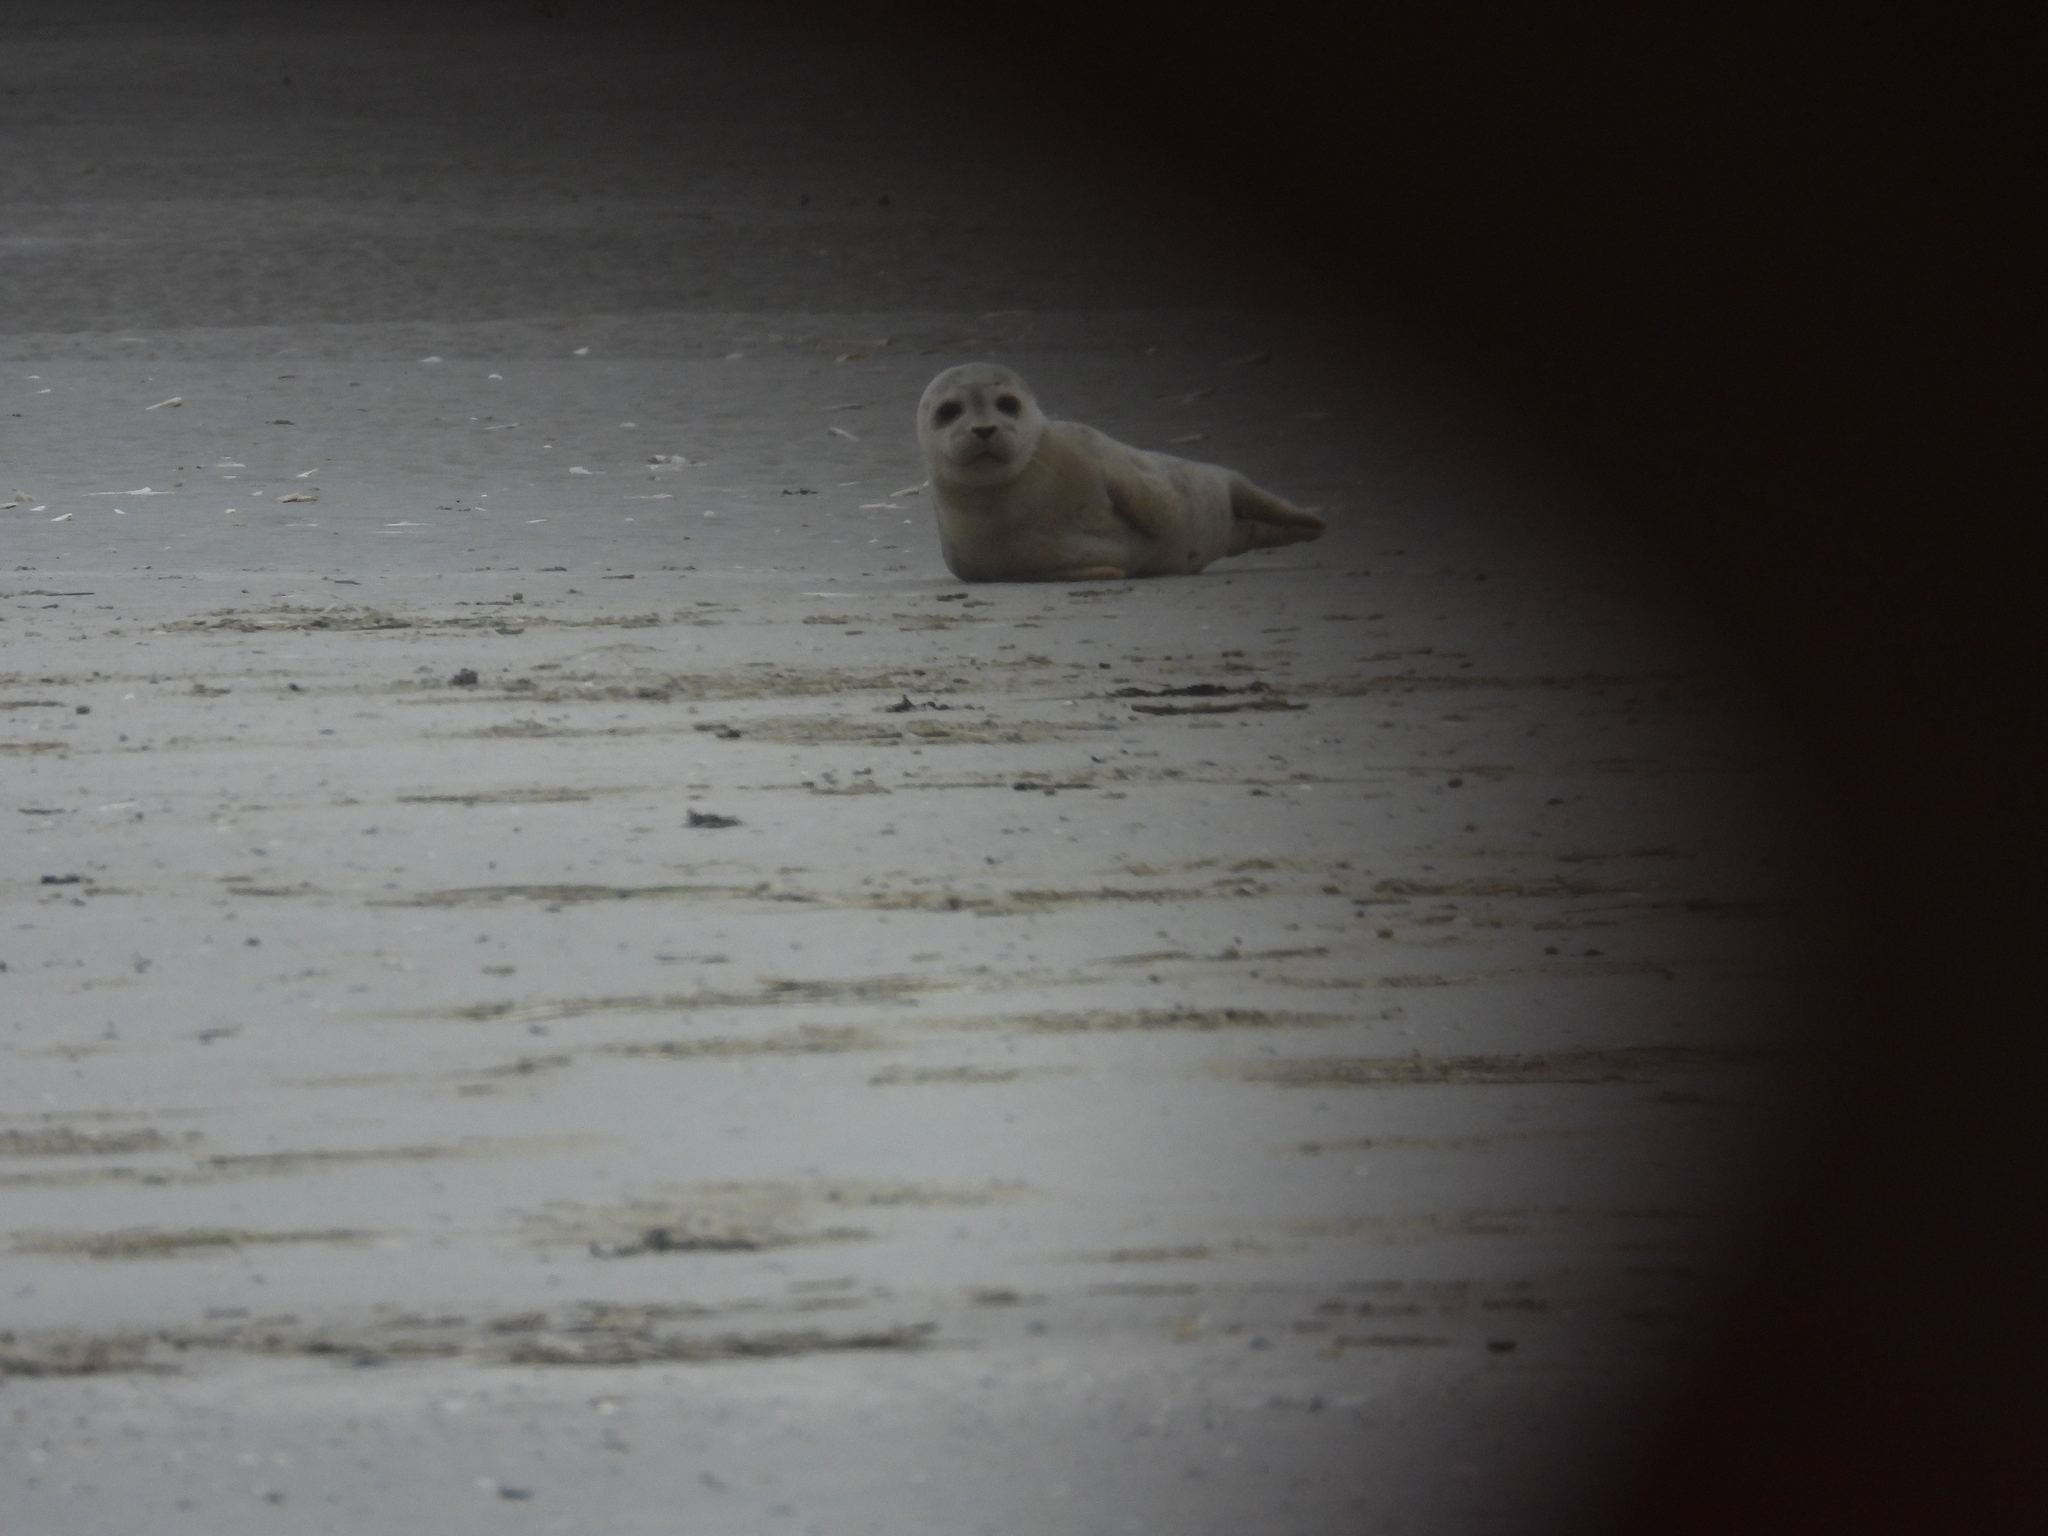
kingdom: Animalia
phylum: Chordata
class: Mammalia
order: Carnivora
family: Phocidae
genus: Phoca
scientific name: Phoca vitulina
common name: Harbor seal
